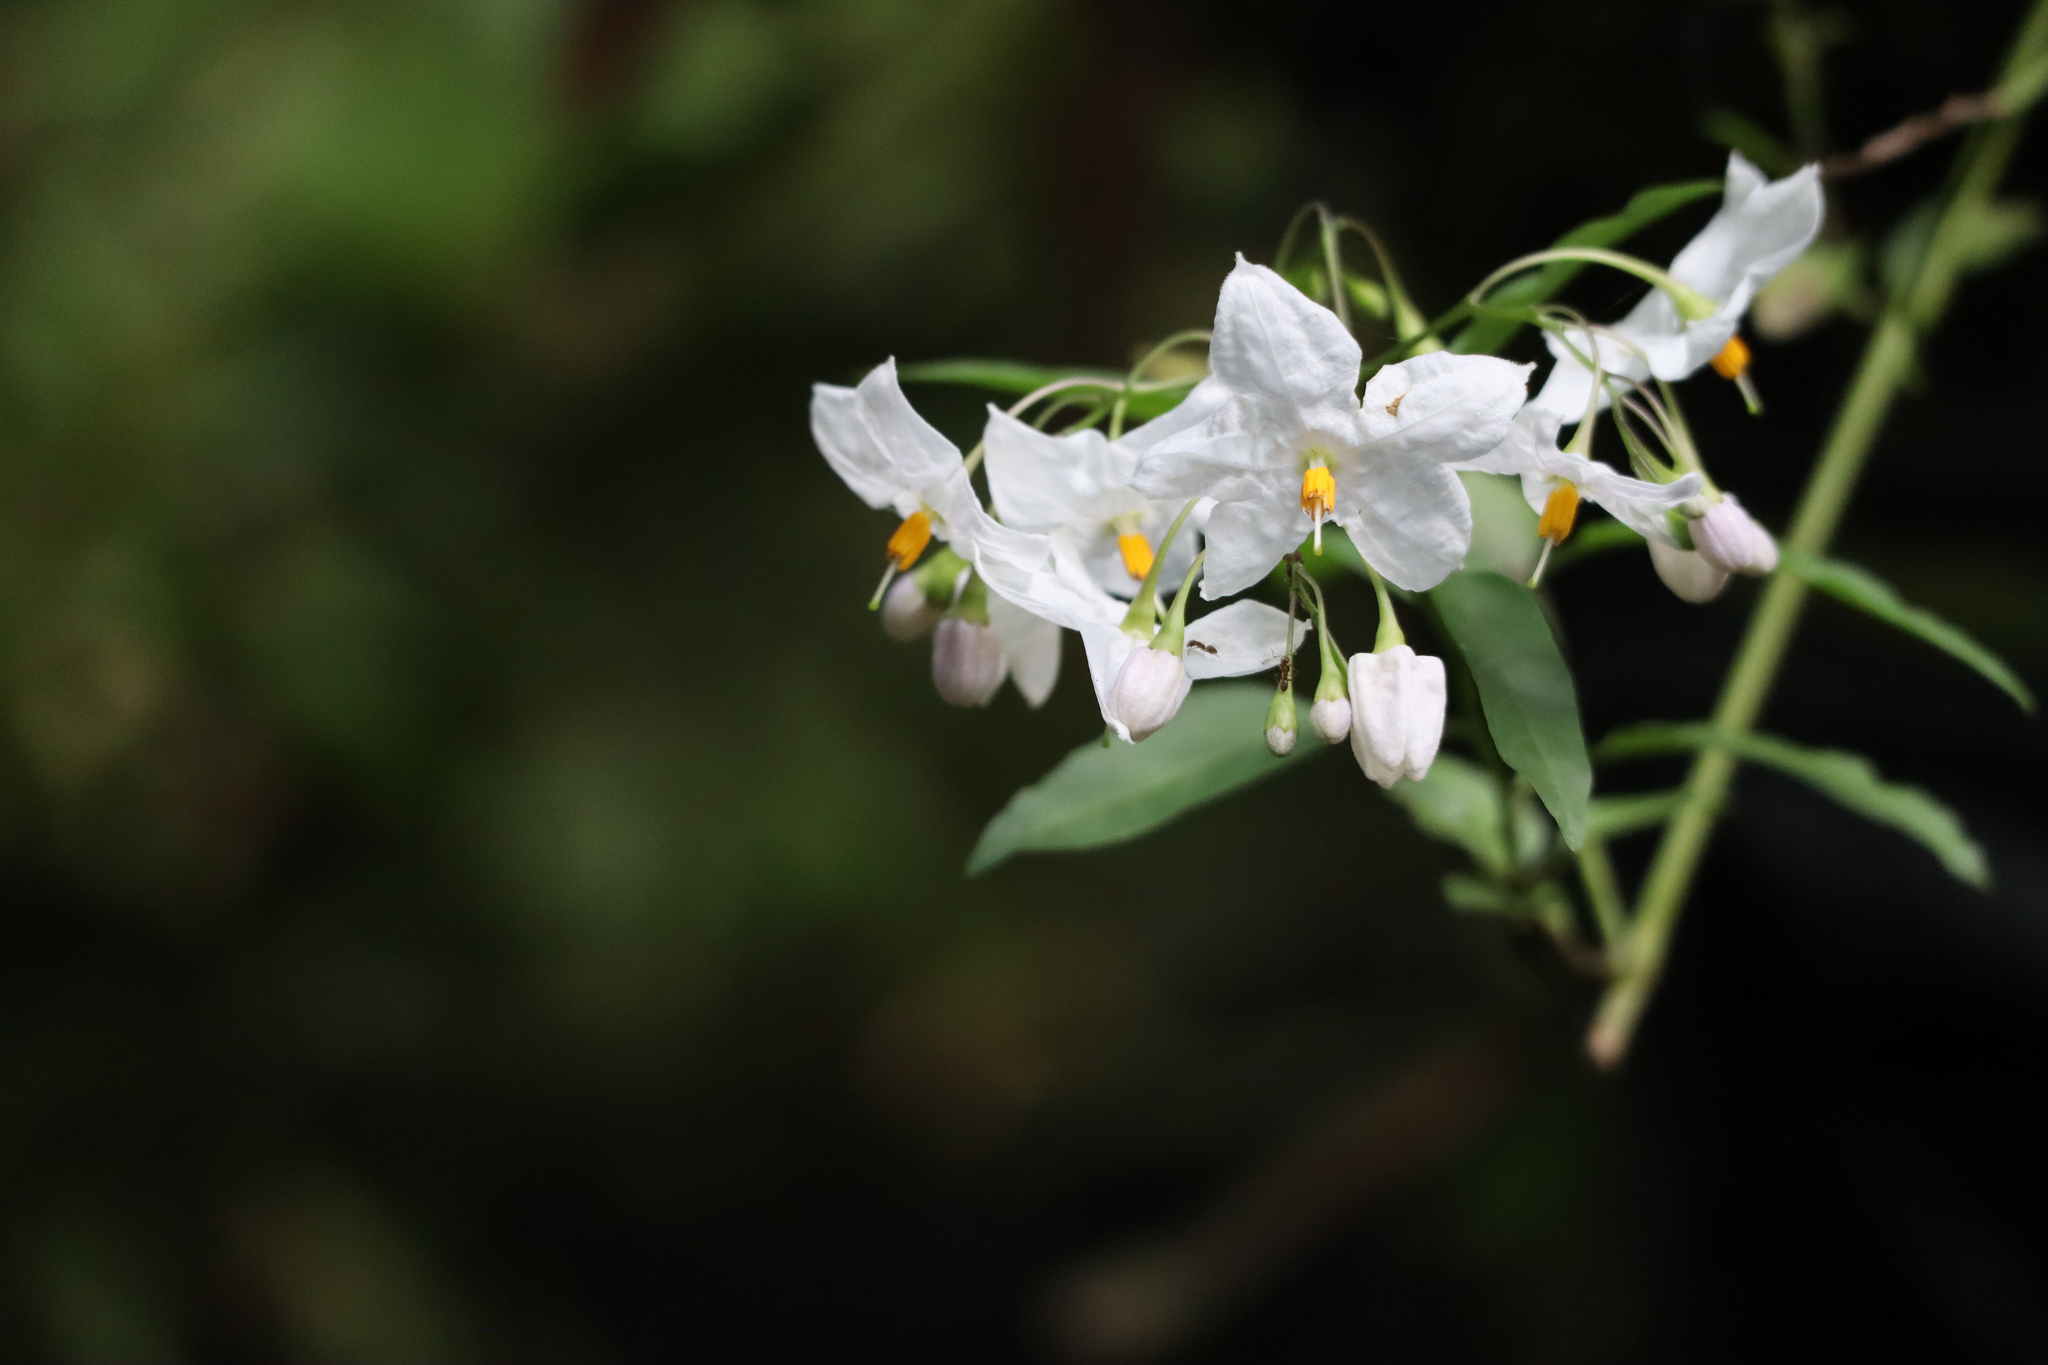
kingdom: Plantae
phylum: Tracheophyta
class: Magnoliopsida
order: Solanales
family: Solanaceae
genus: Solanum
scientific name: Solanum laxum
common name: Nightshade
